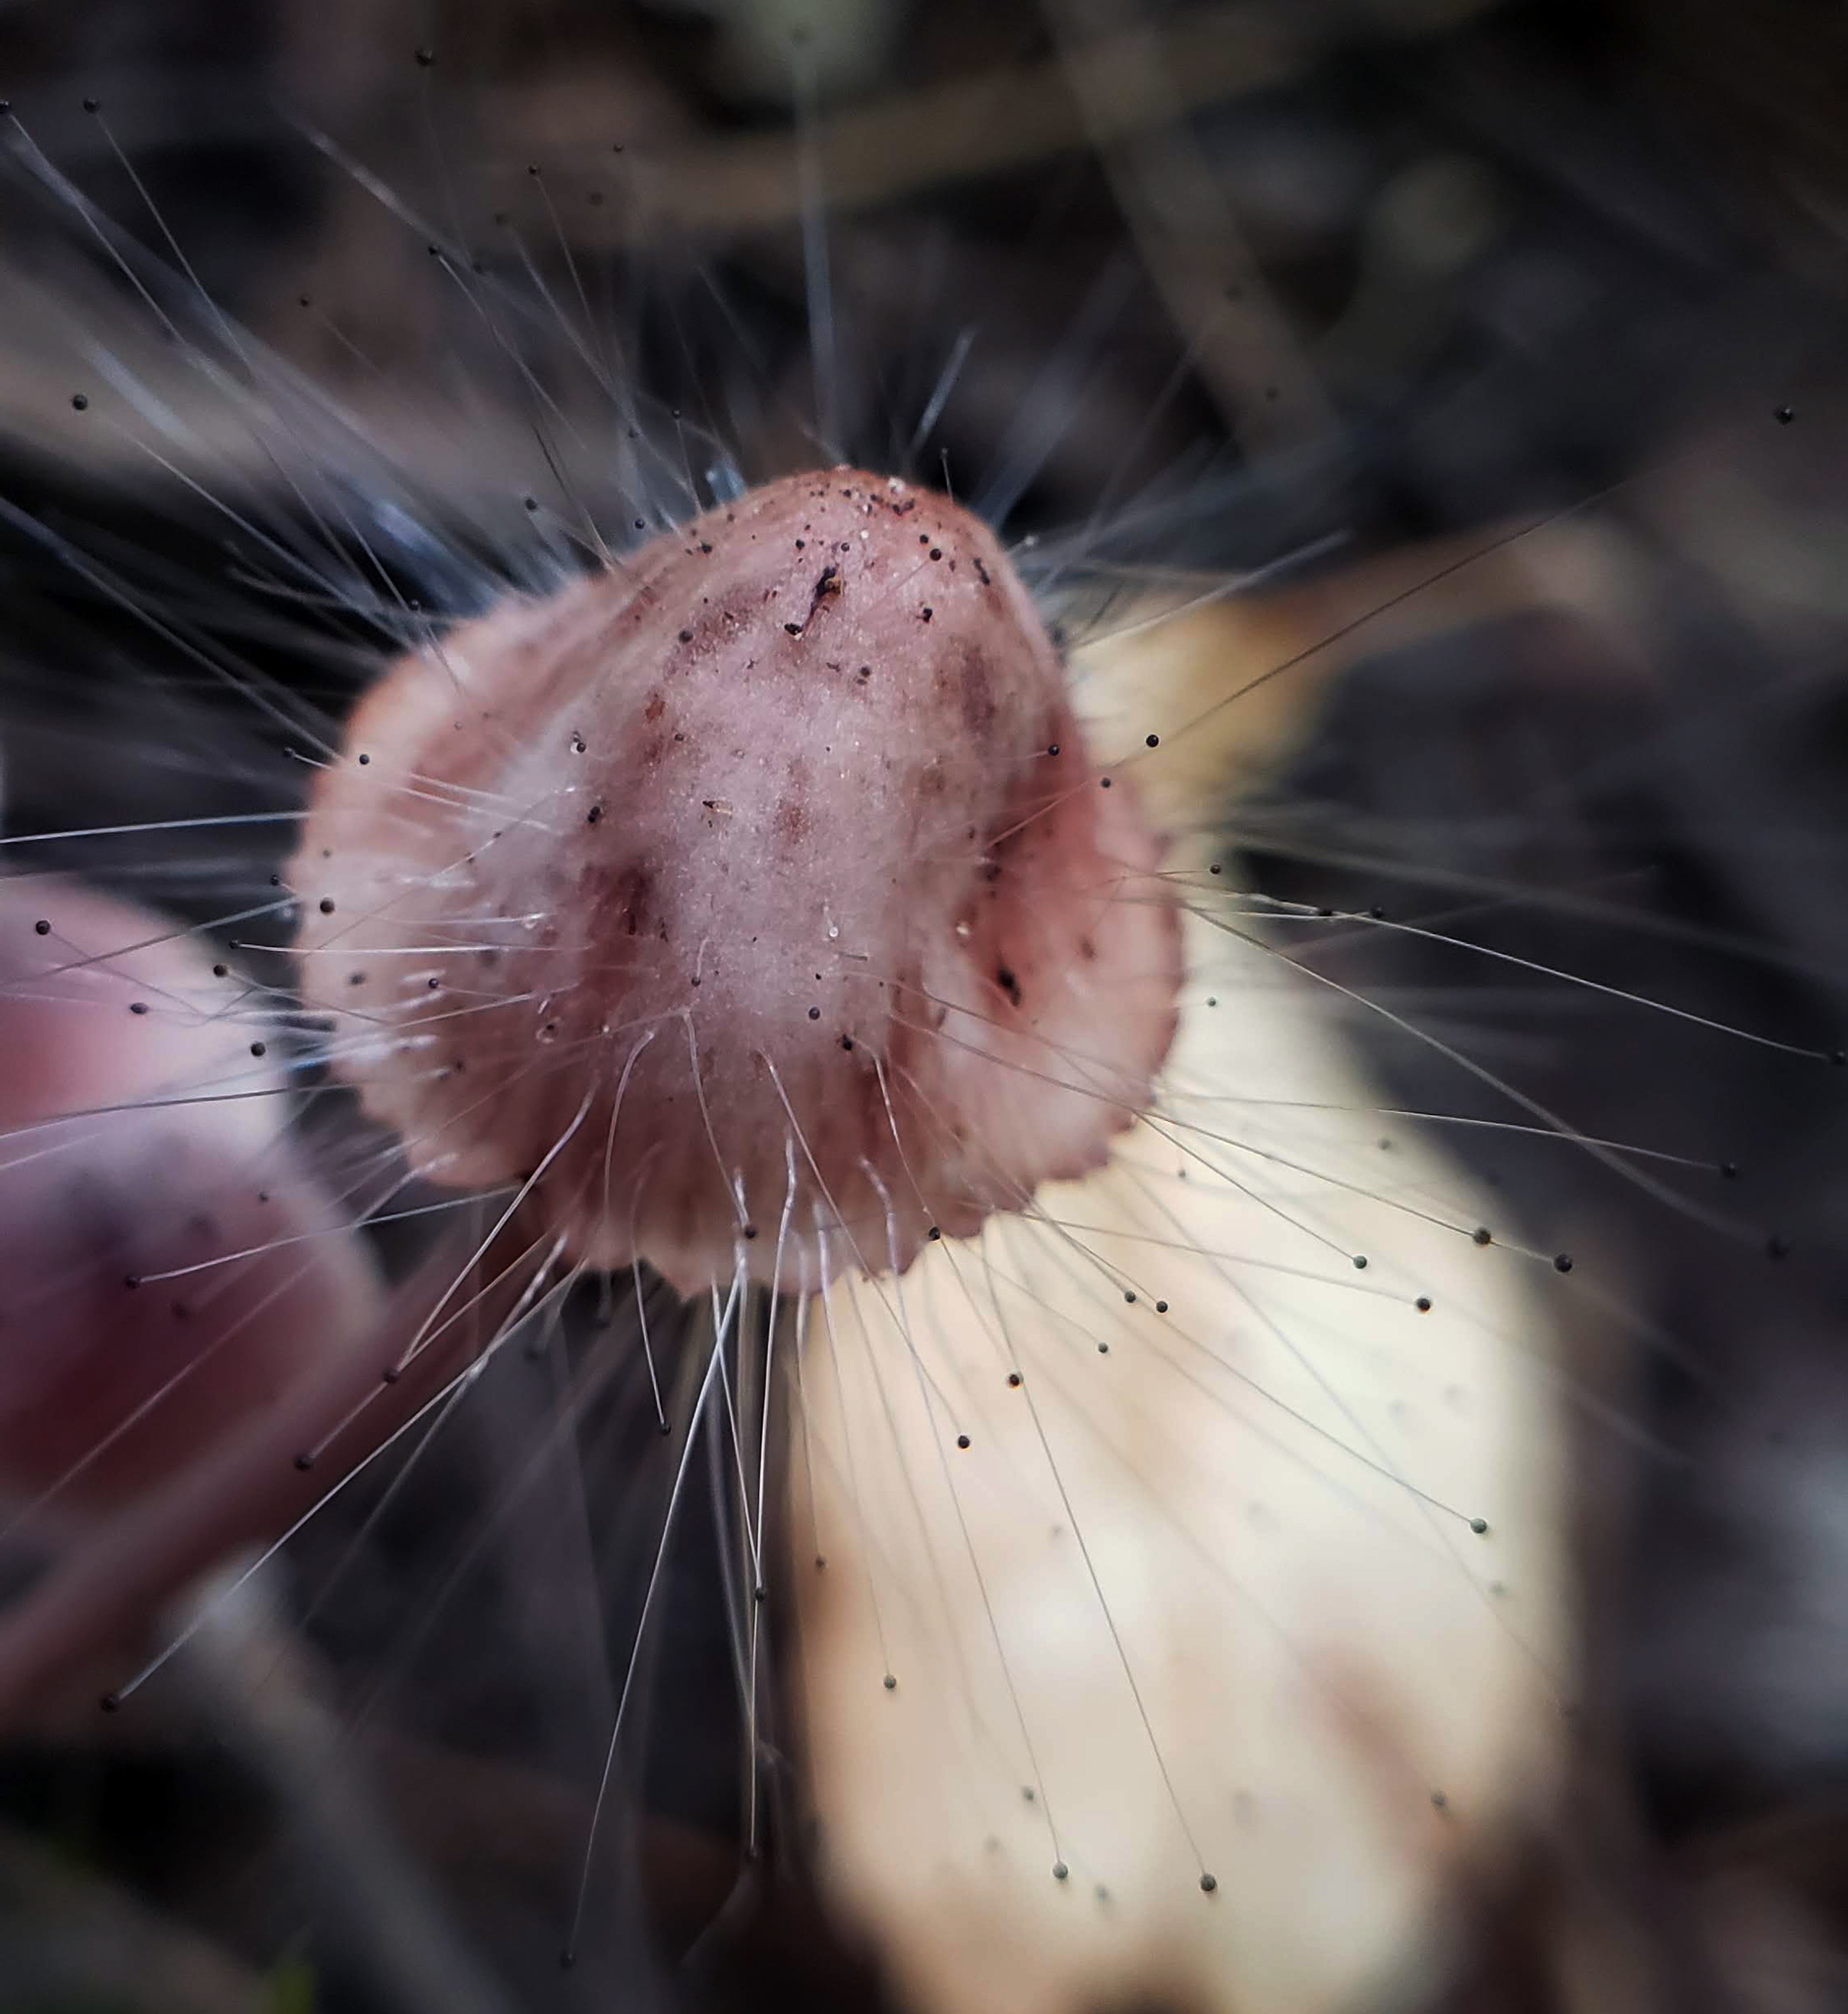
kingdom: Fungi
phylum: Mucoromycota
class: Mucoromycetes
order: Mucorales
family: Phycomycetaceae
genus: Spinellus
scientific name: Spinellus fusiger
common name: Bonnet mould
